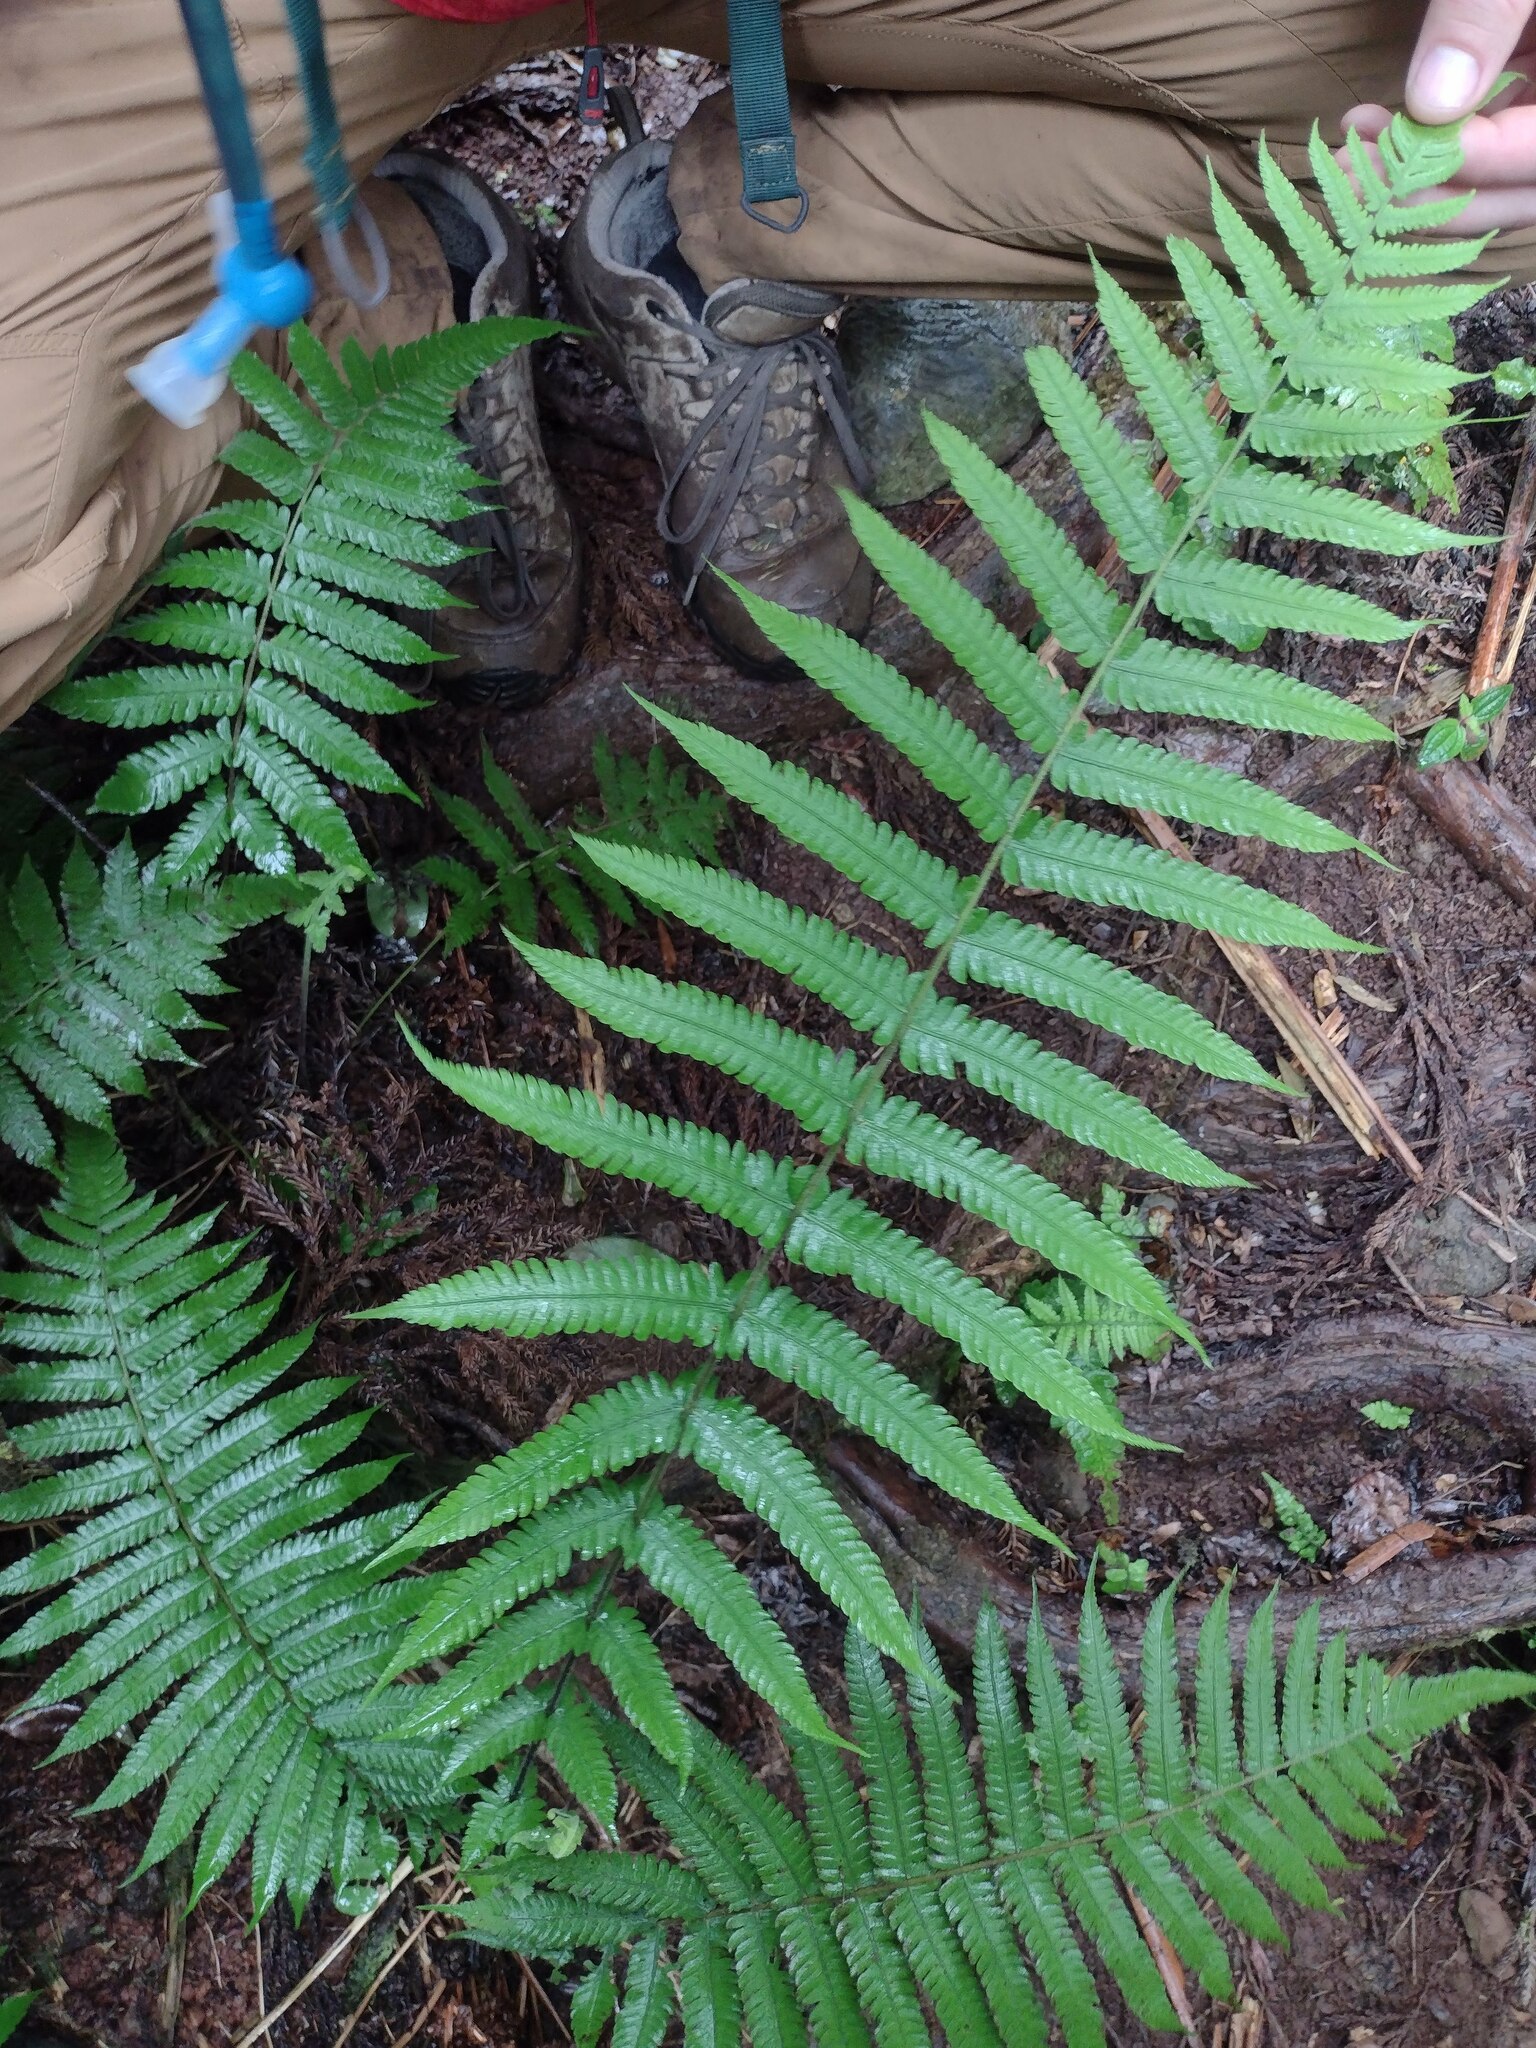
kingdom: Plantae
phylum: Tracheophyta
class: Polypodiopsida
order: Polypodiales
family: Thelypteridaceae
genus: Christella
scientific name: Christella dentata
